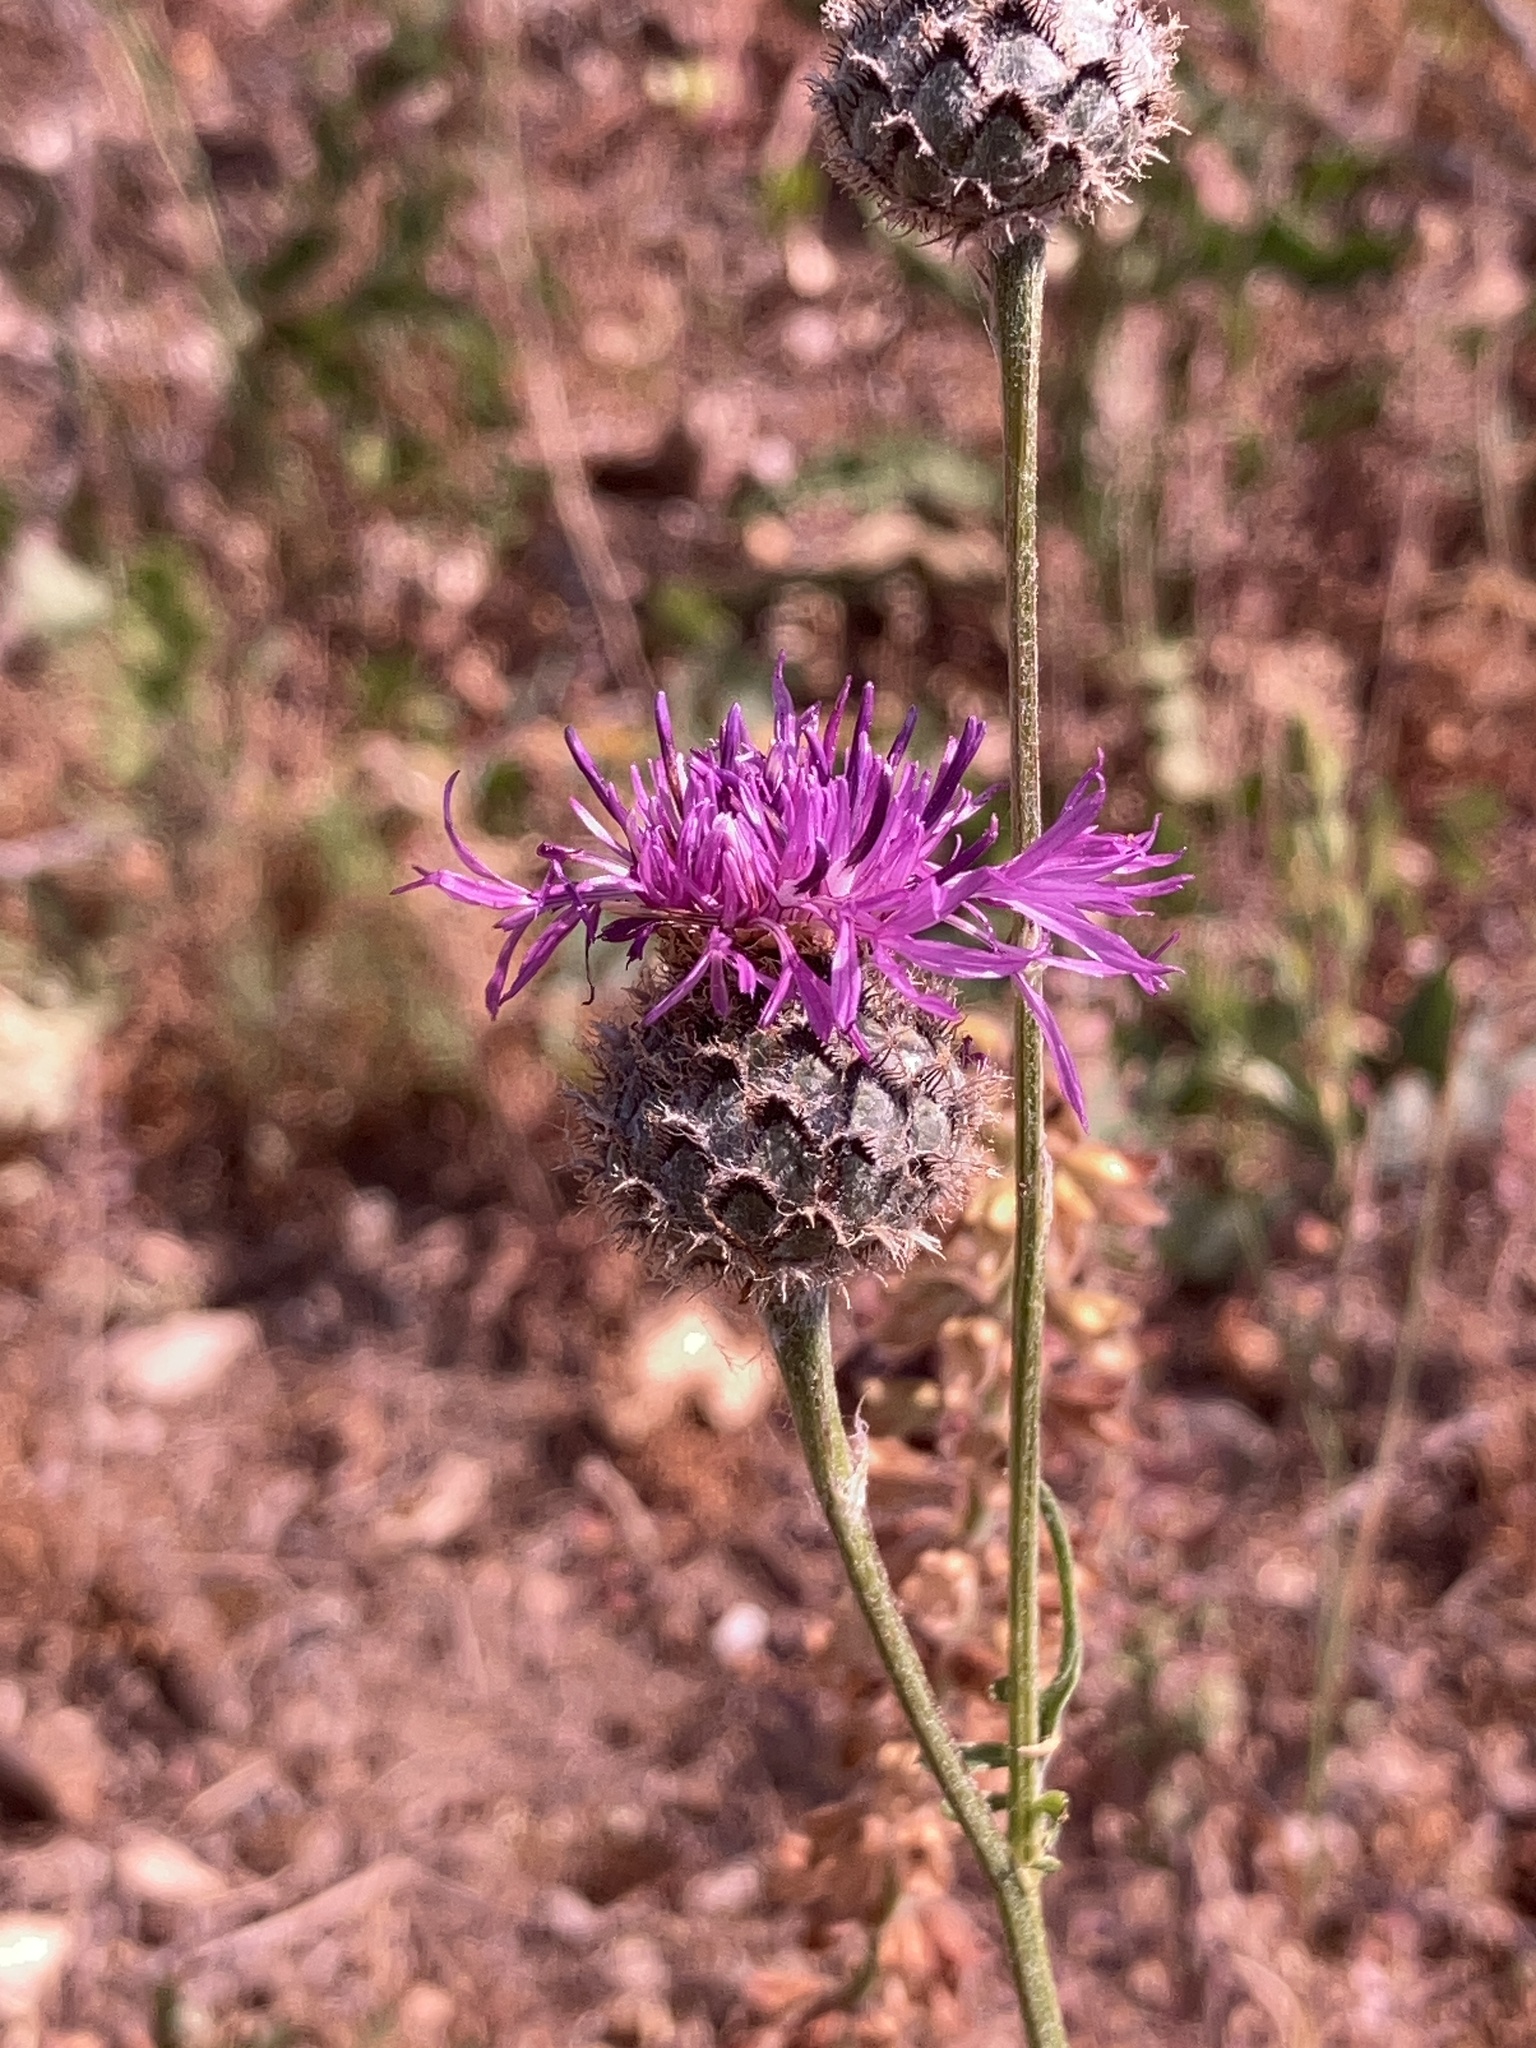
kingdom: Plantae
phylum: Tracheophyta
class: Magnoliopsida
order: Asterales
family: Asteraceae
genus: Centaurea
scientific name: Centaurea scabiosa
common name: Greater knapweed
